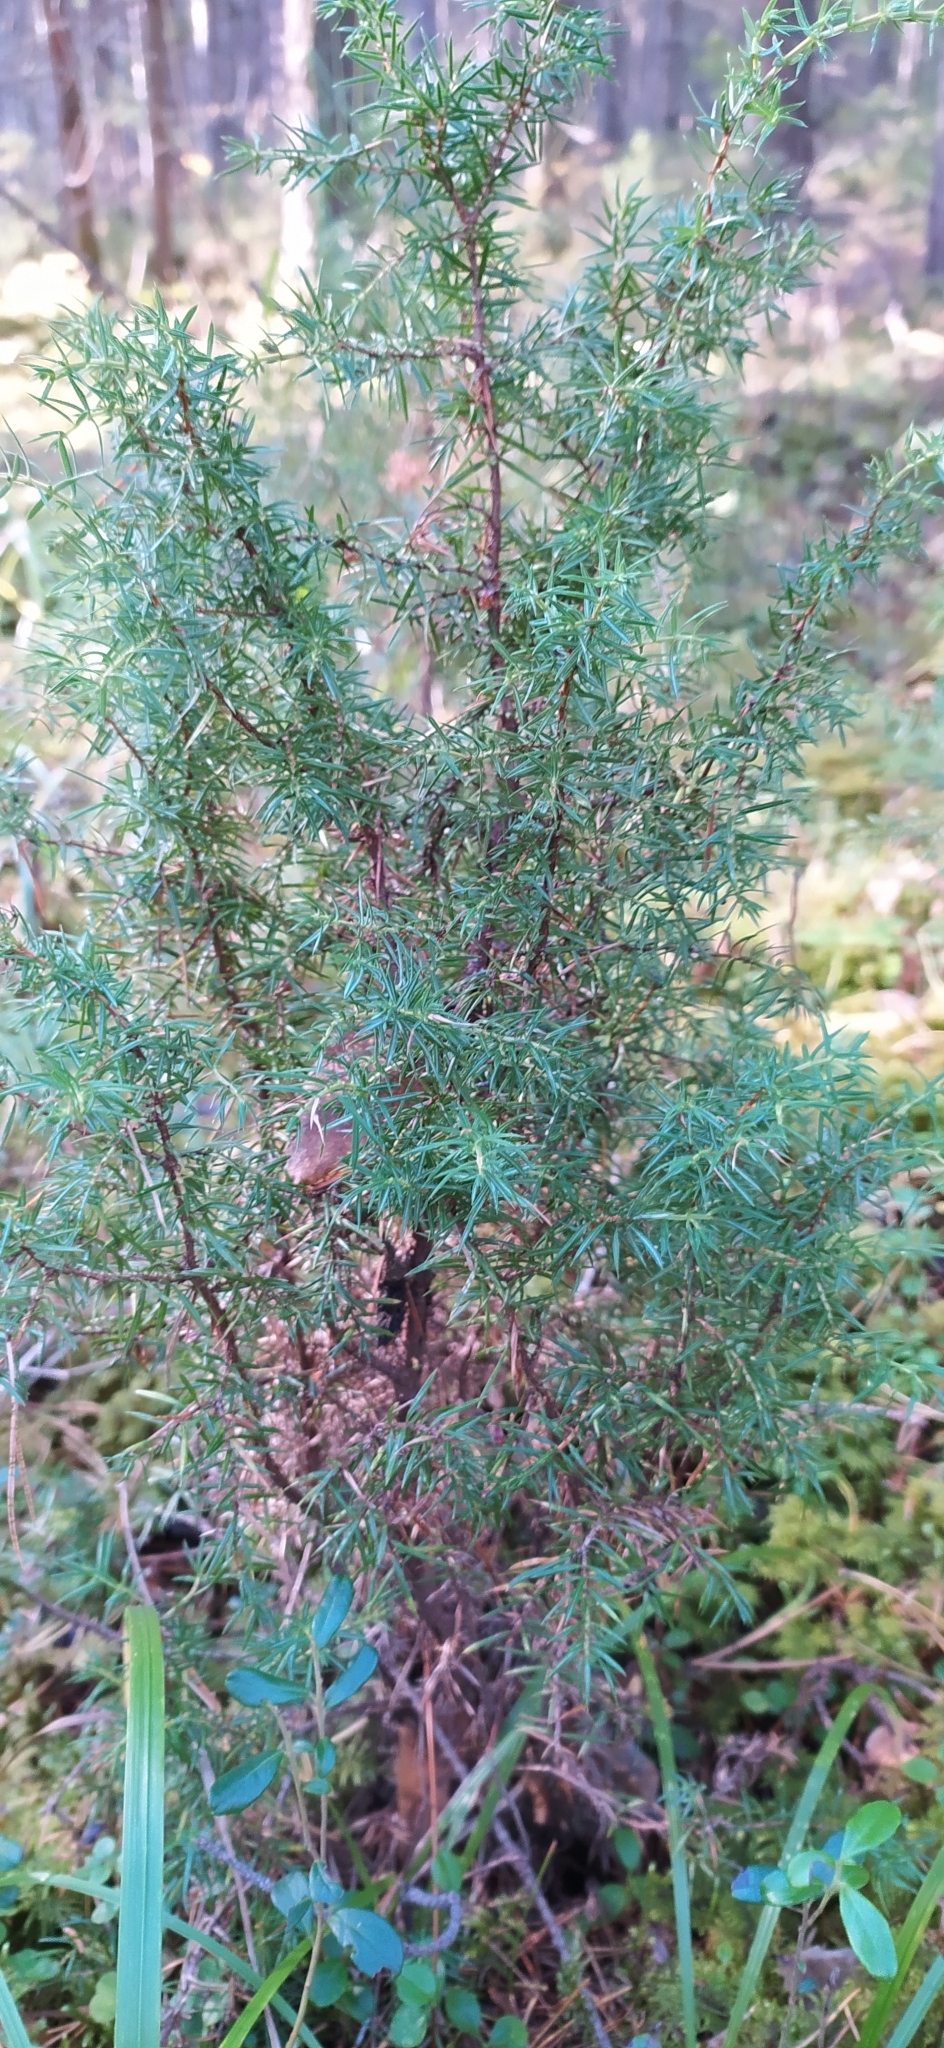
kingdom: Plantae
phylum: Tracheophyta
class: Pinopsida
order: Pinales
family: Cupressaceae
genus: Juniperus
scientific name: Juniperus communis
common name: Common juniper
